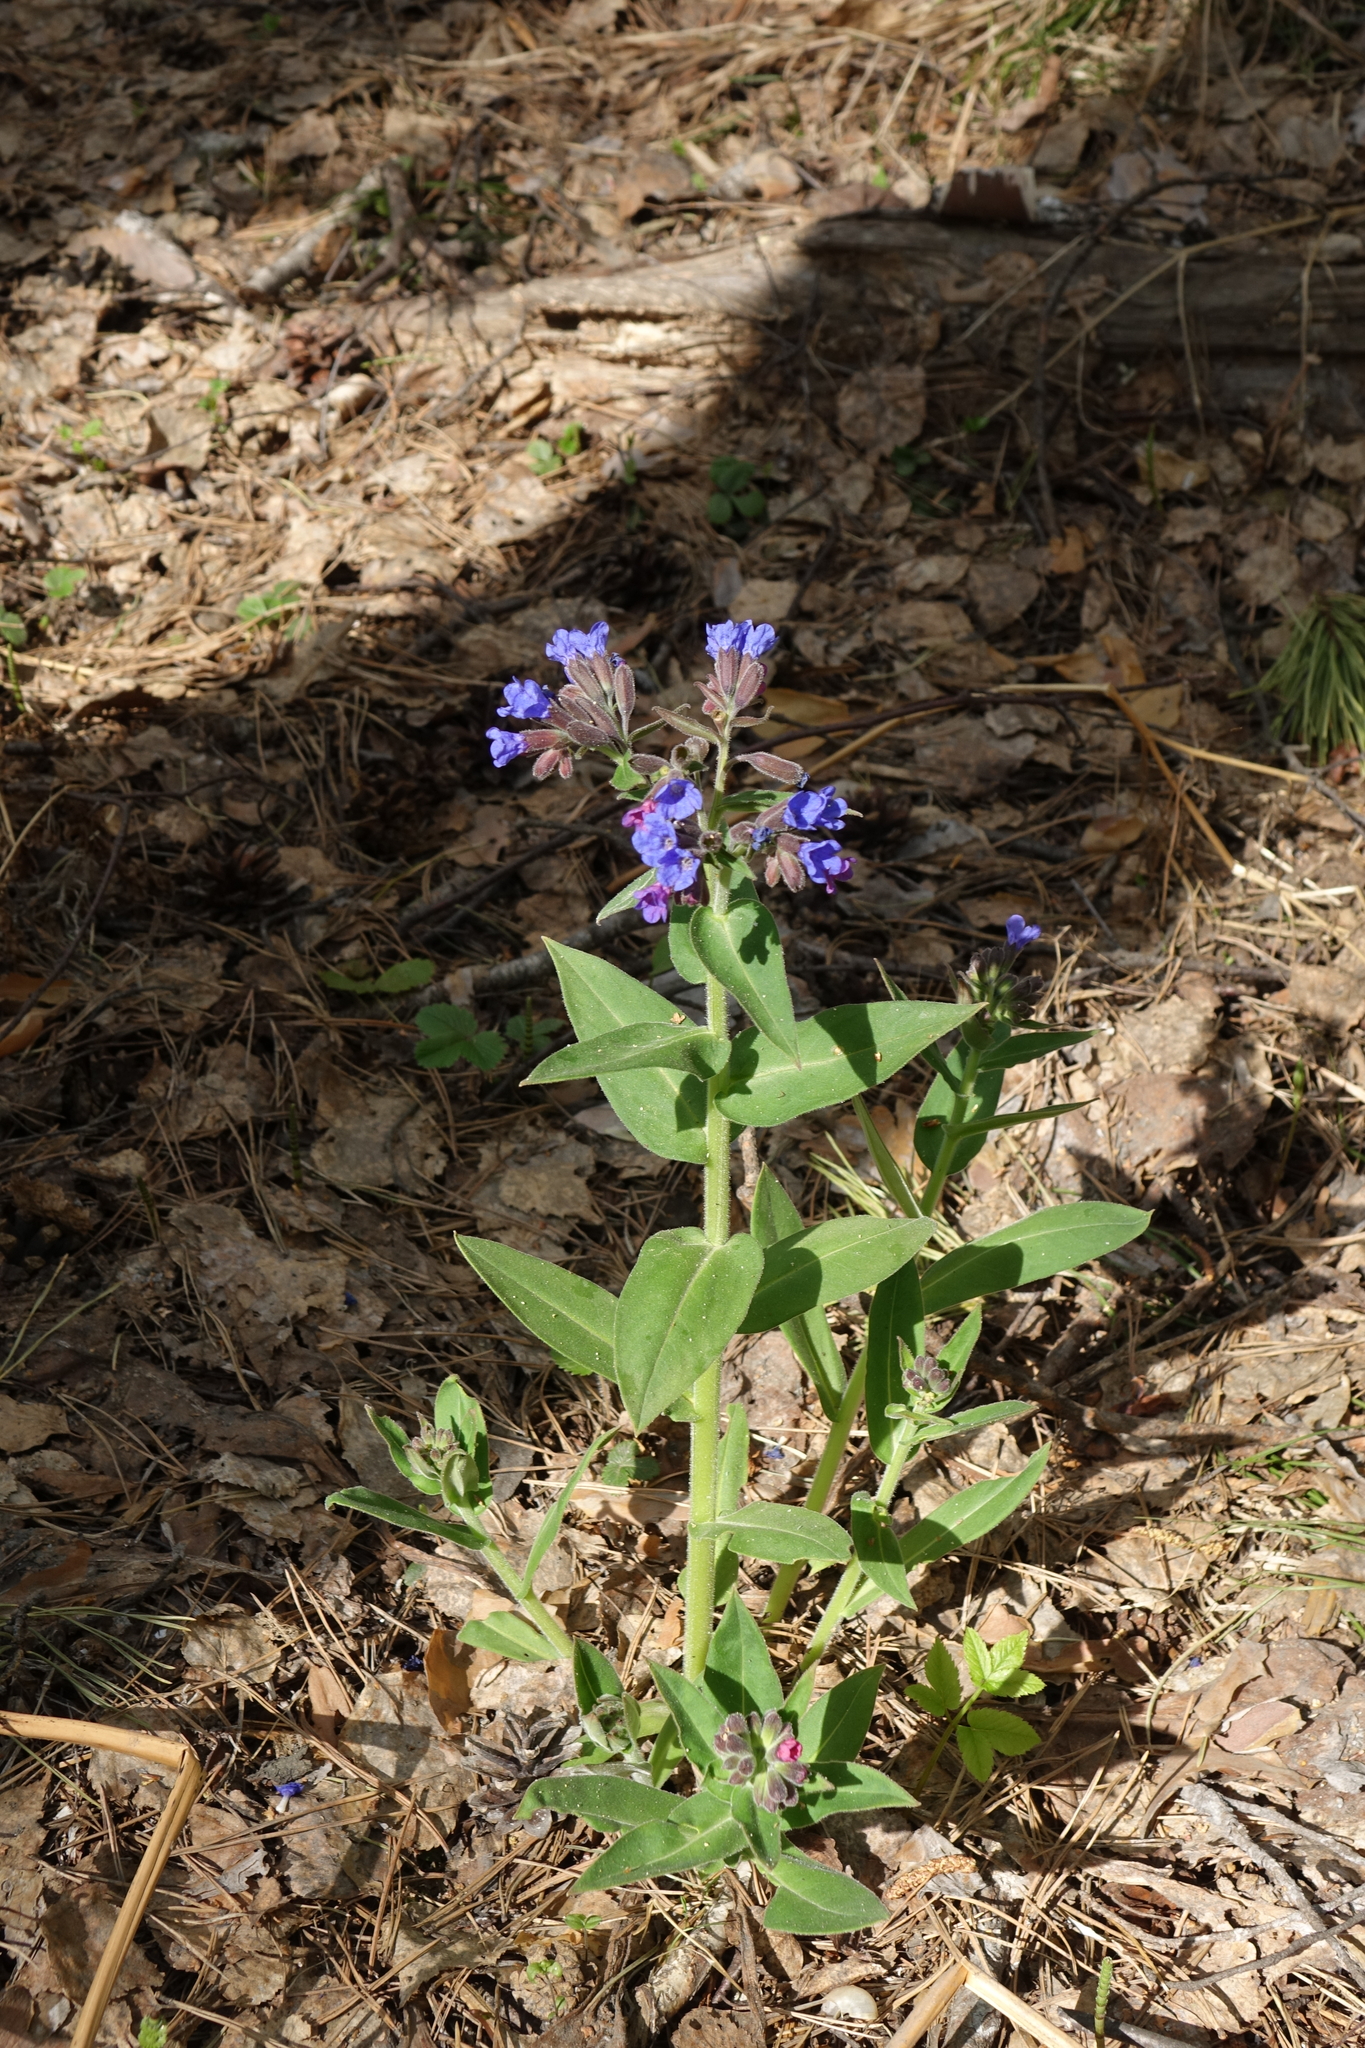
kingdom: Plantae
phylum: Tracheophyta
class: Magnoliopsida
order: Boraginales
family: Boraginaceae
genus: Pulmonaria
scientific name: Pulmonaria mollis
